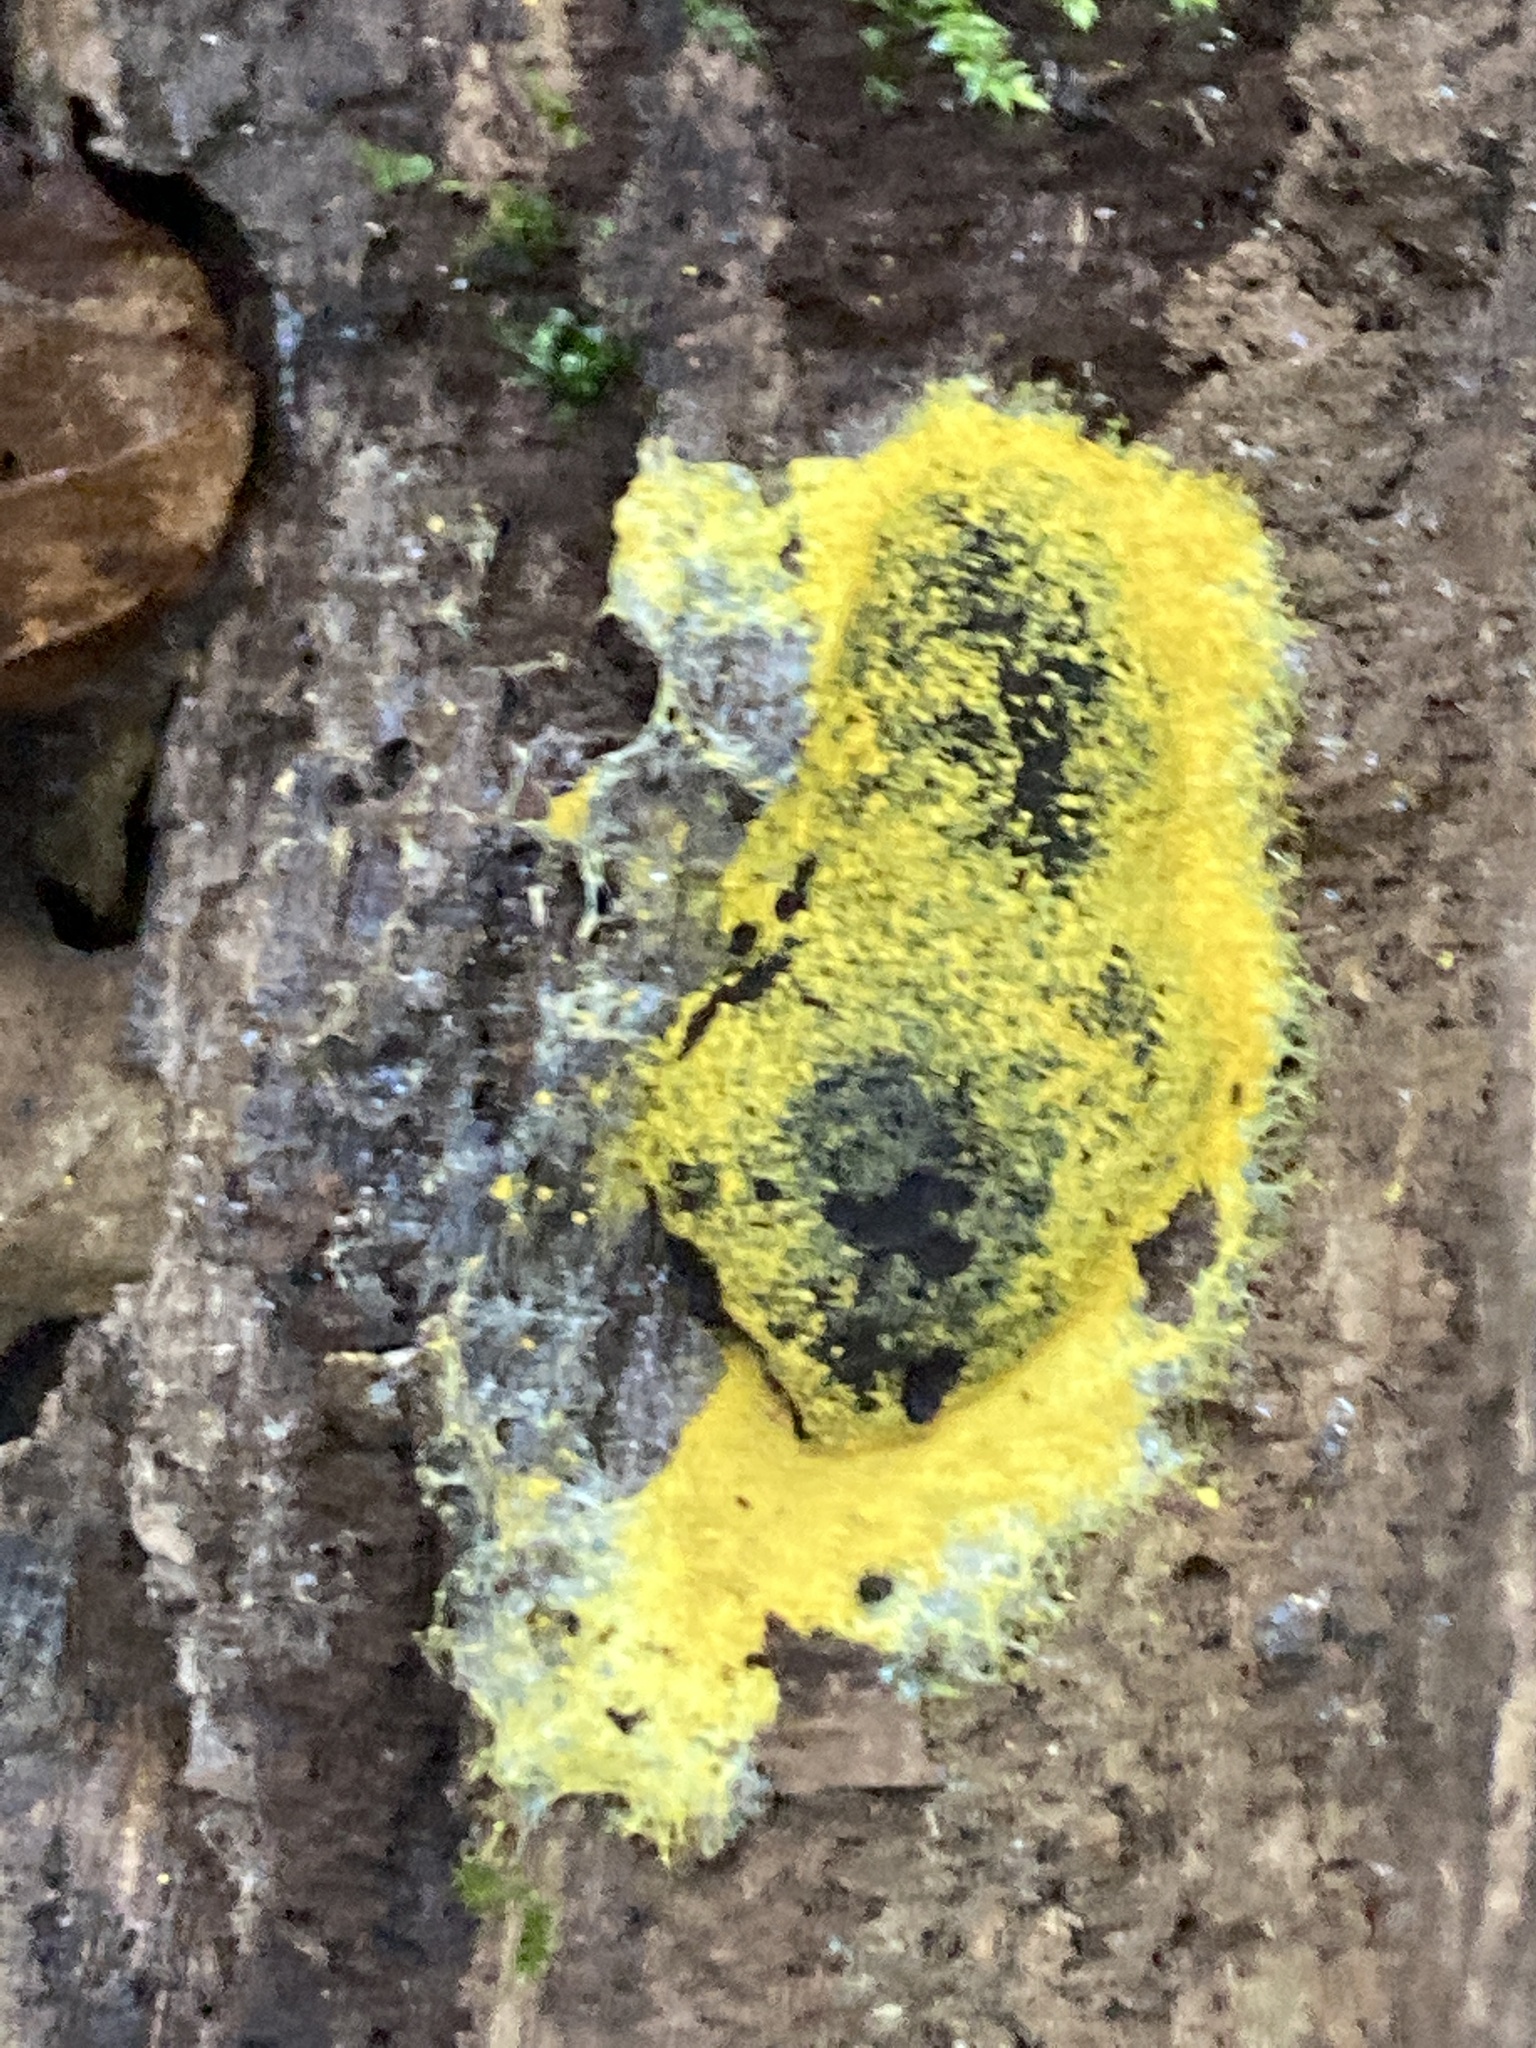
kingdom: Protozoa
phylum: Mycetozoa
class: Myxomycetes
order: Physarales
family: Physaraceae
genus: Fuligo
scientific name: Fuligo septica
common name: Dog vomit slime mold
